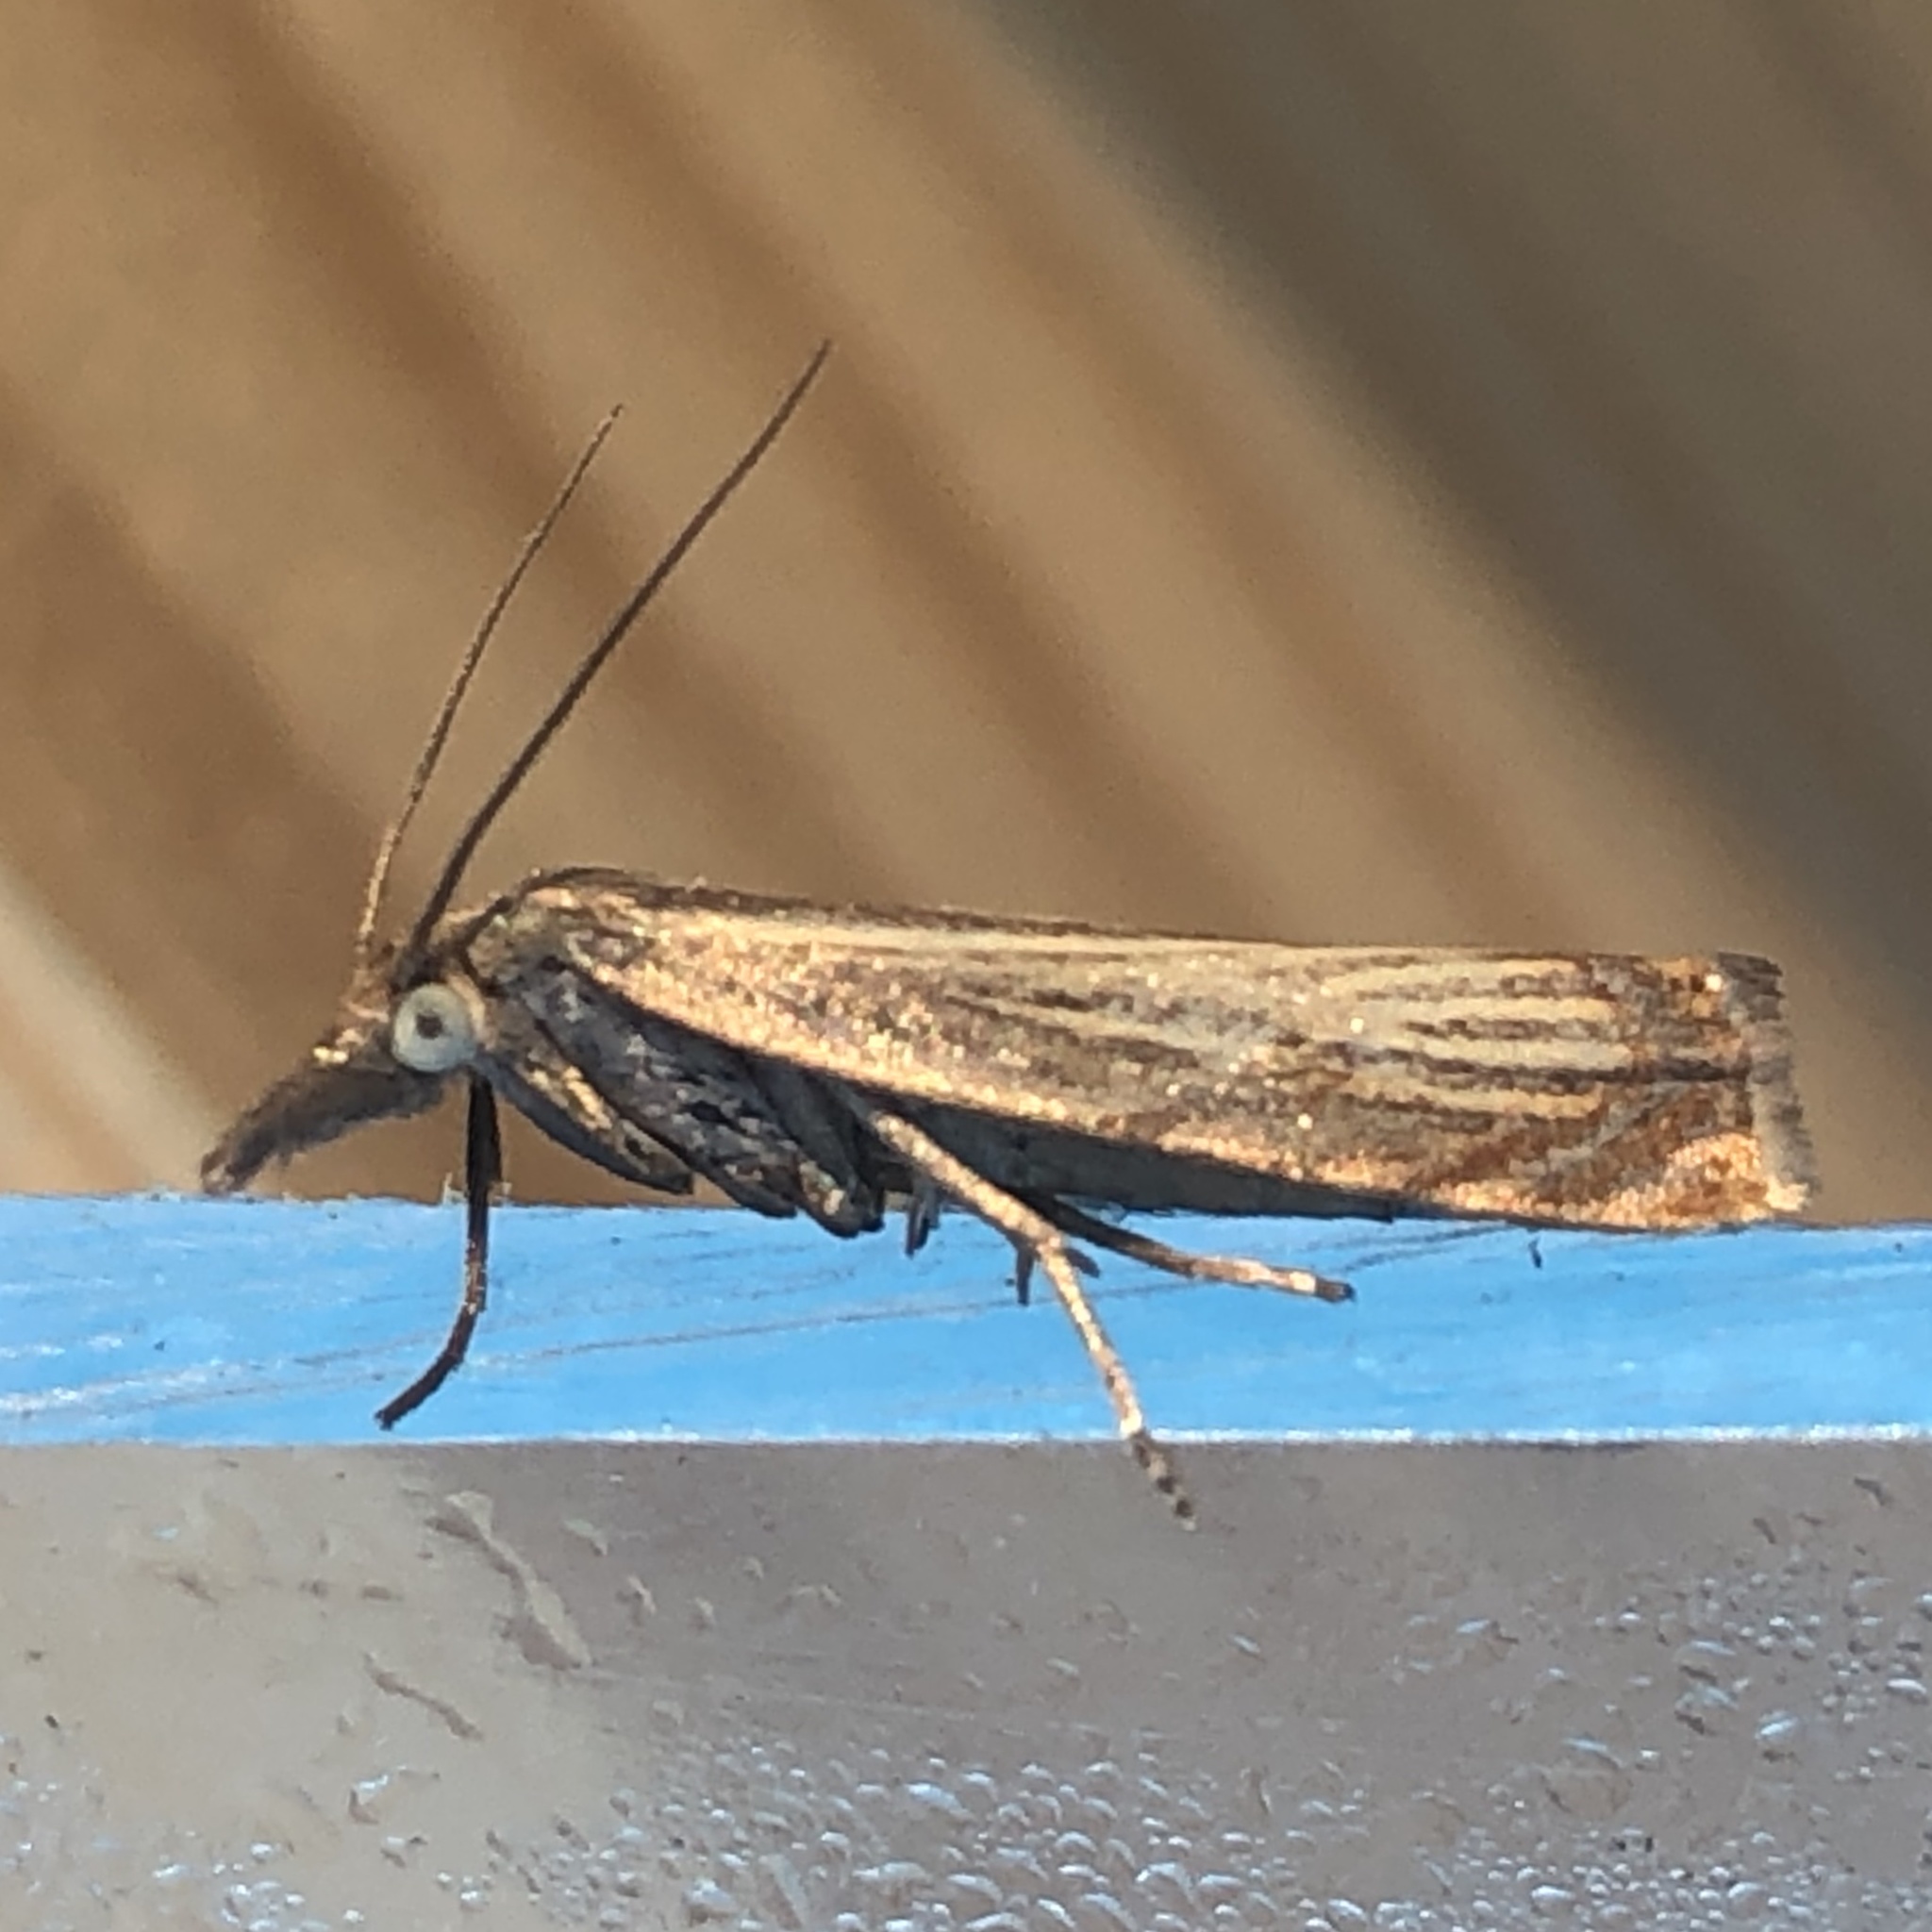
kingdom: Animalia
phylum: Arthropoda
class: Insecta
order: Lepidoptera
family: Crambidae
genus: Chrysoteuchia
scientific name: Chrysoteuchia culmella
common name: Garden grass-veneer
